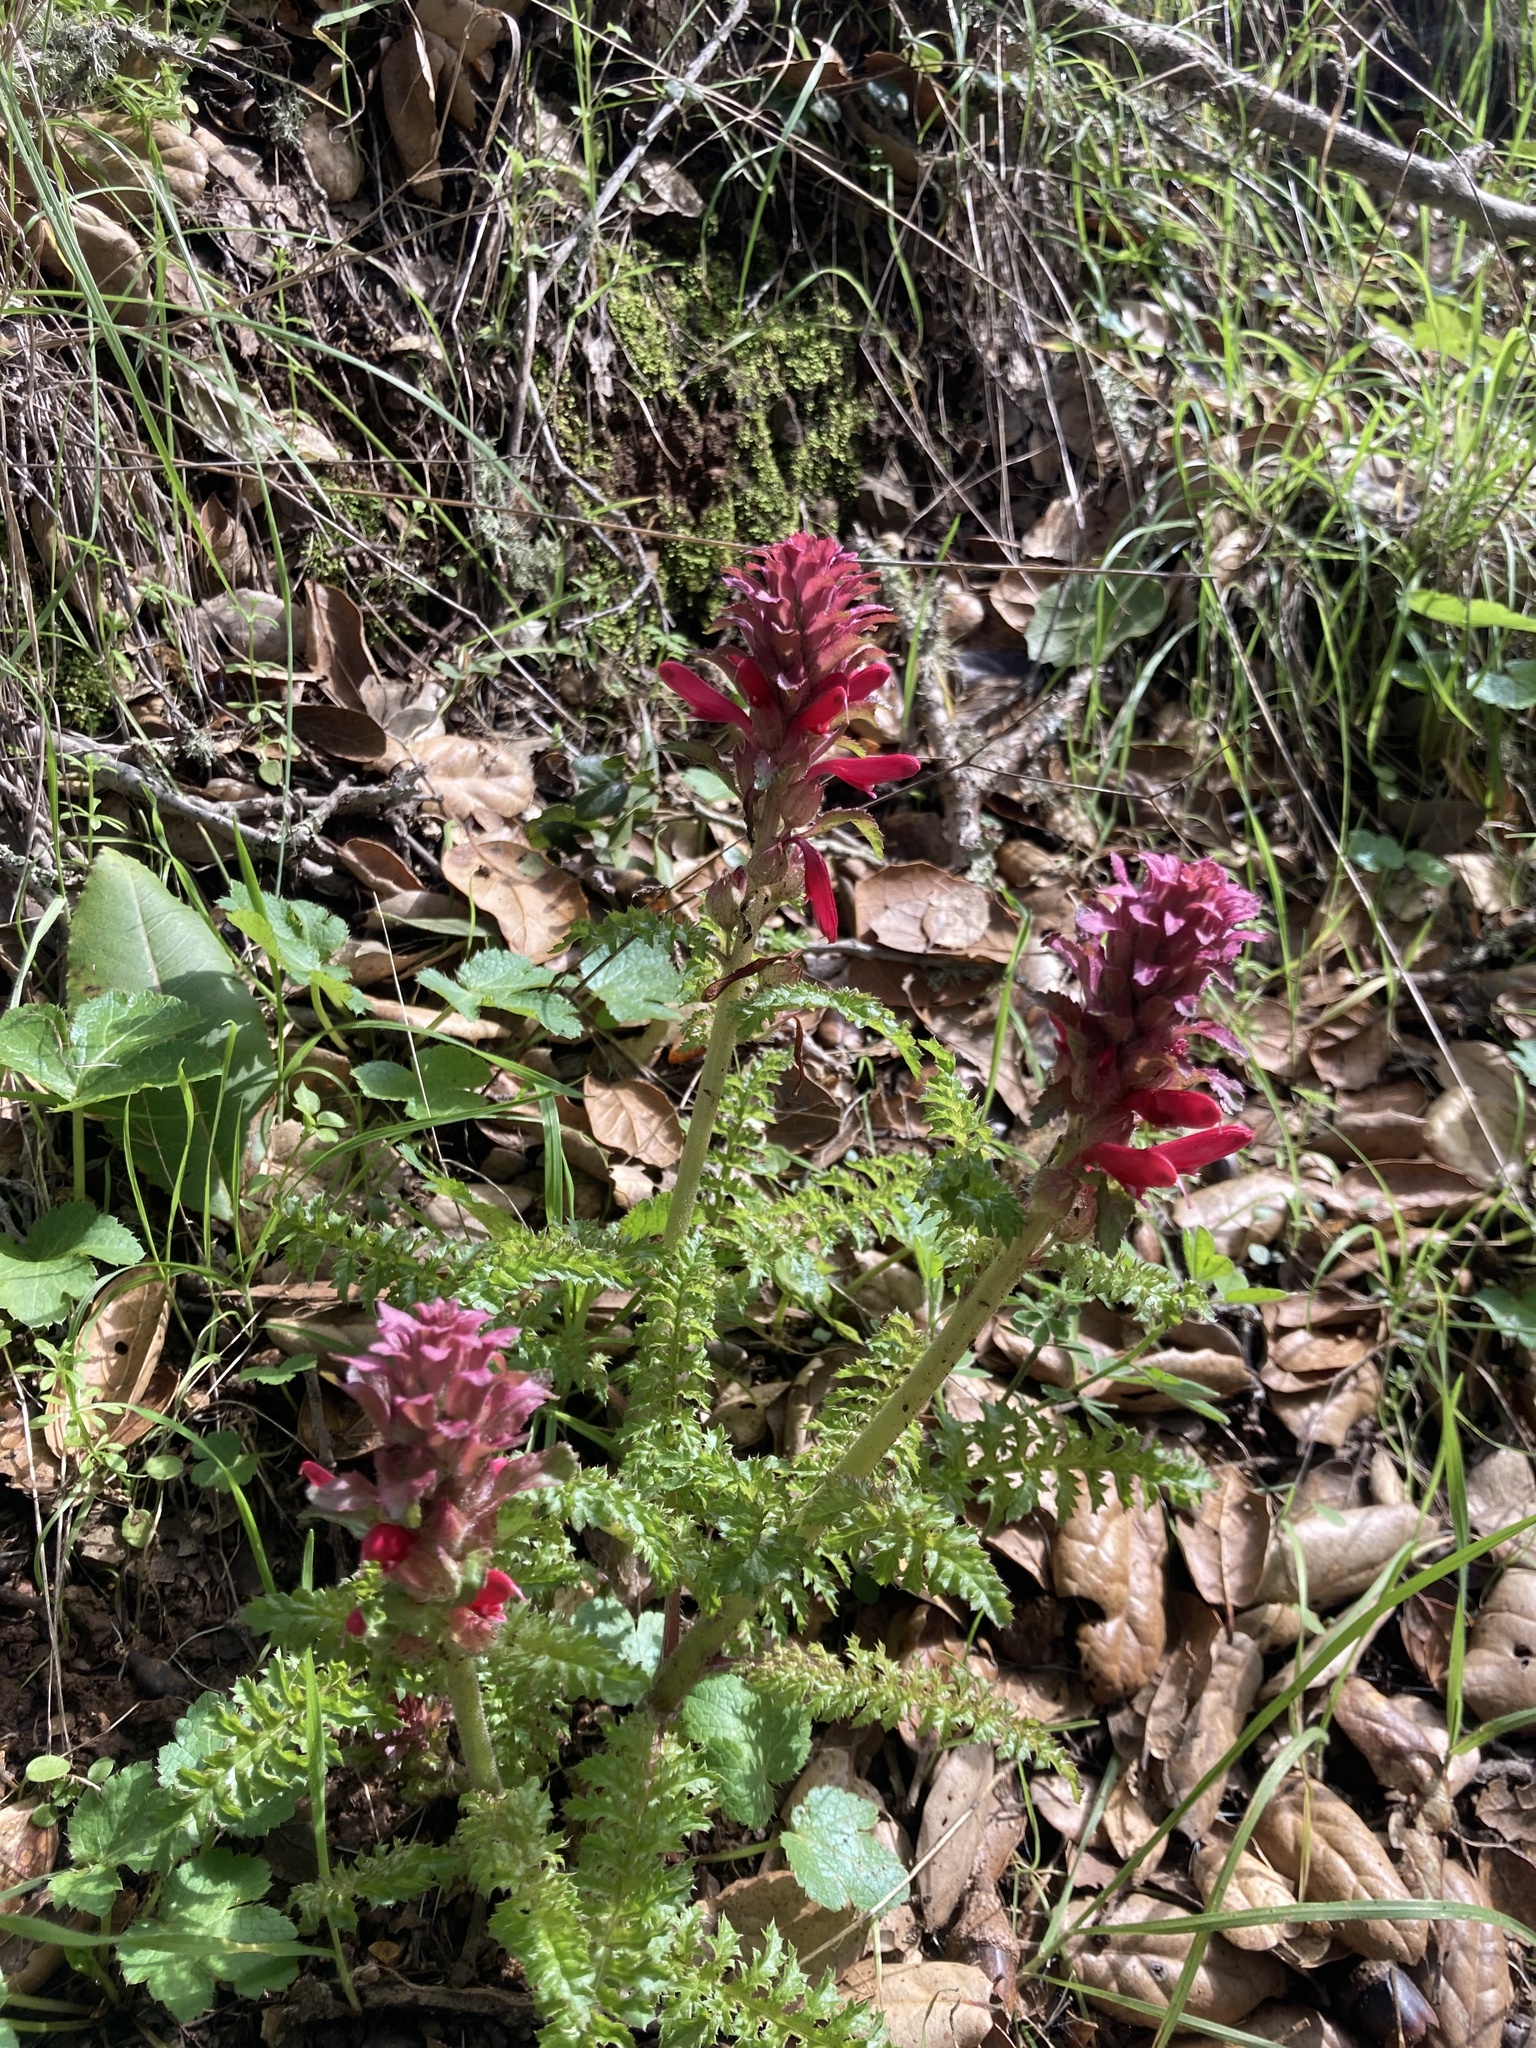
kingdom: Plantae
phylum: Tracheophyta
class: Magnoliopsida
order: Lamiales
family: Orobanchaceae
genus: Pedicularis
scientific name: Pedicularis densiflora
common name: Indian warrior
